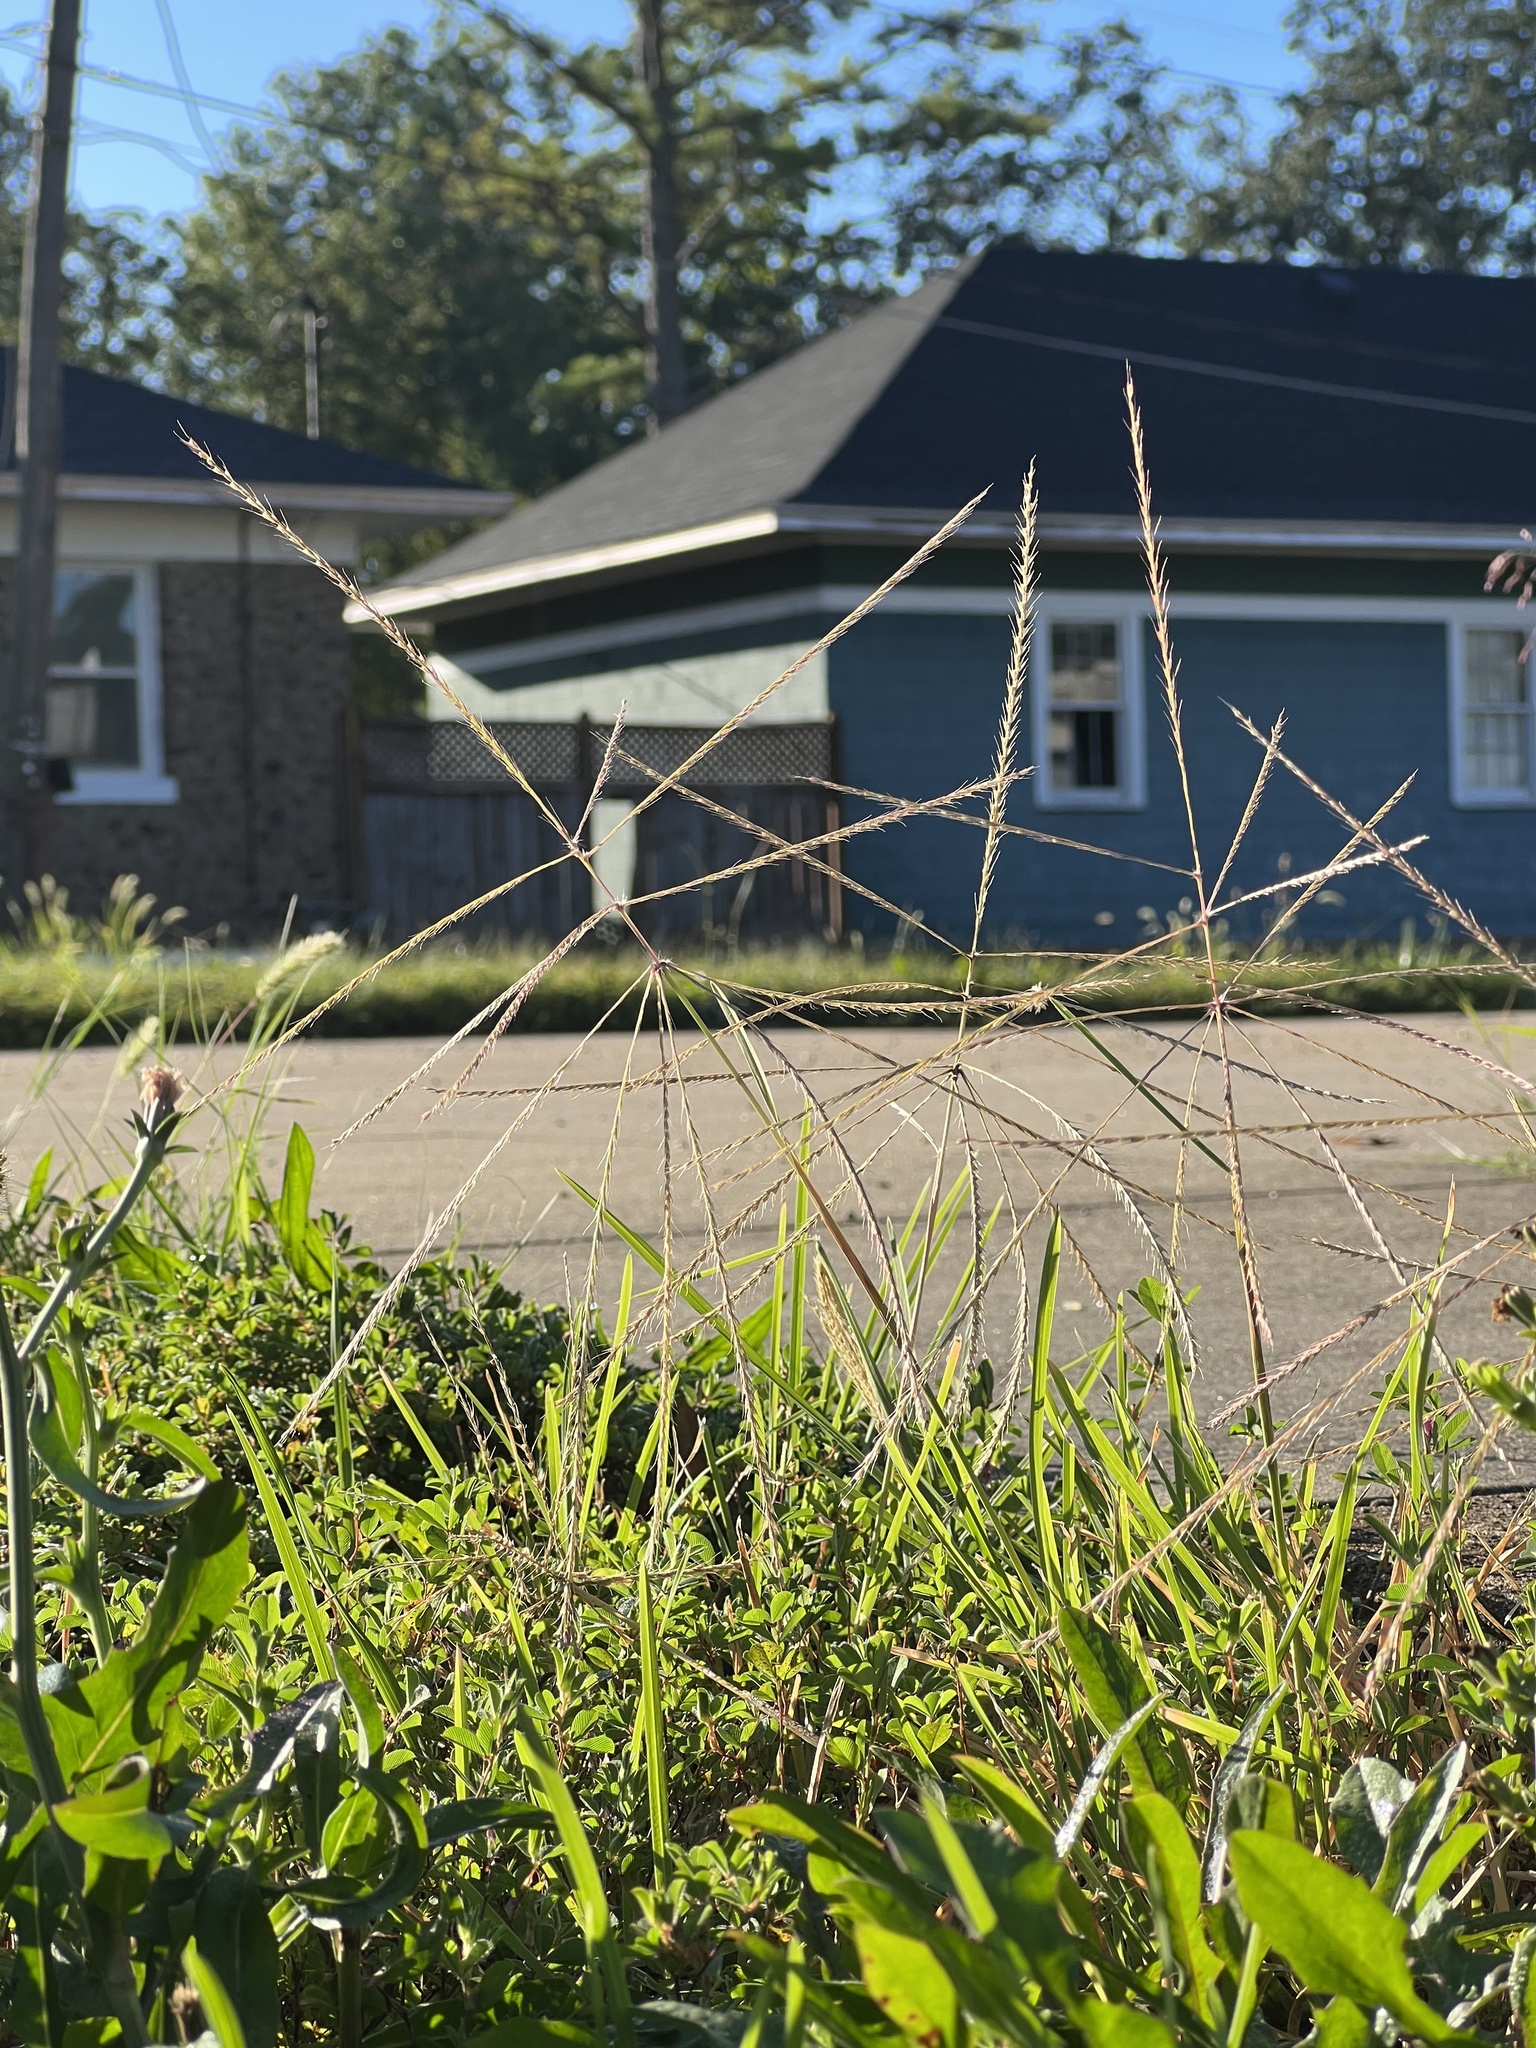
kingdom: Plantae
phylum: Tracheophyta
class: Liliopsida
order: Poales
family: Poaceae
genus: Chloris
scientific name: Chloris verticillata
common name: Tumble windmill grass
